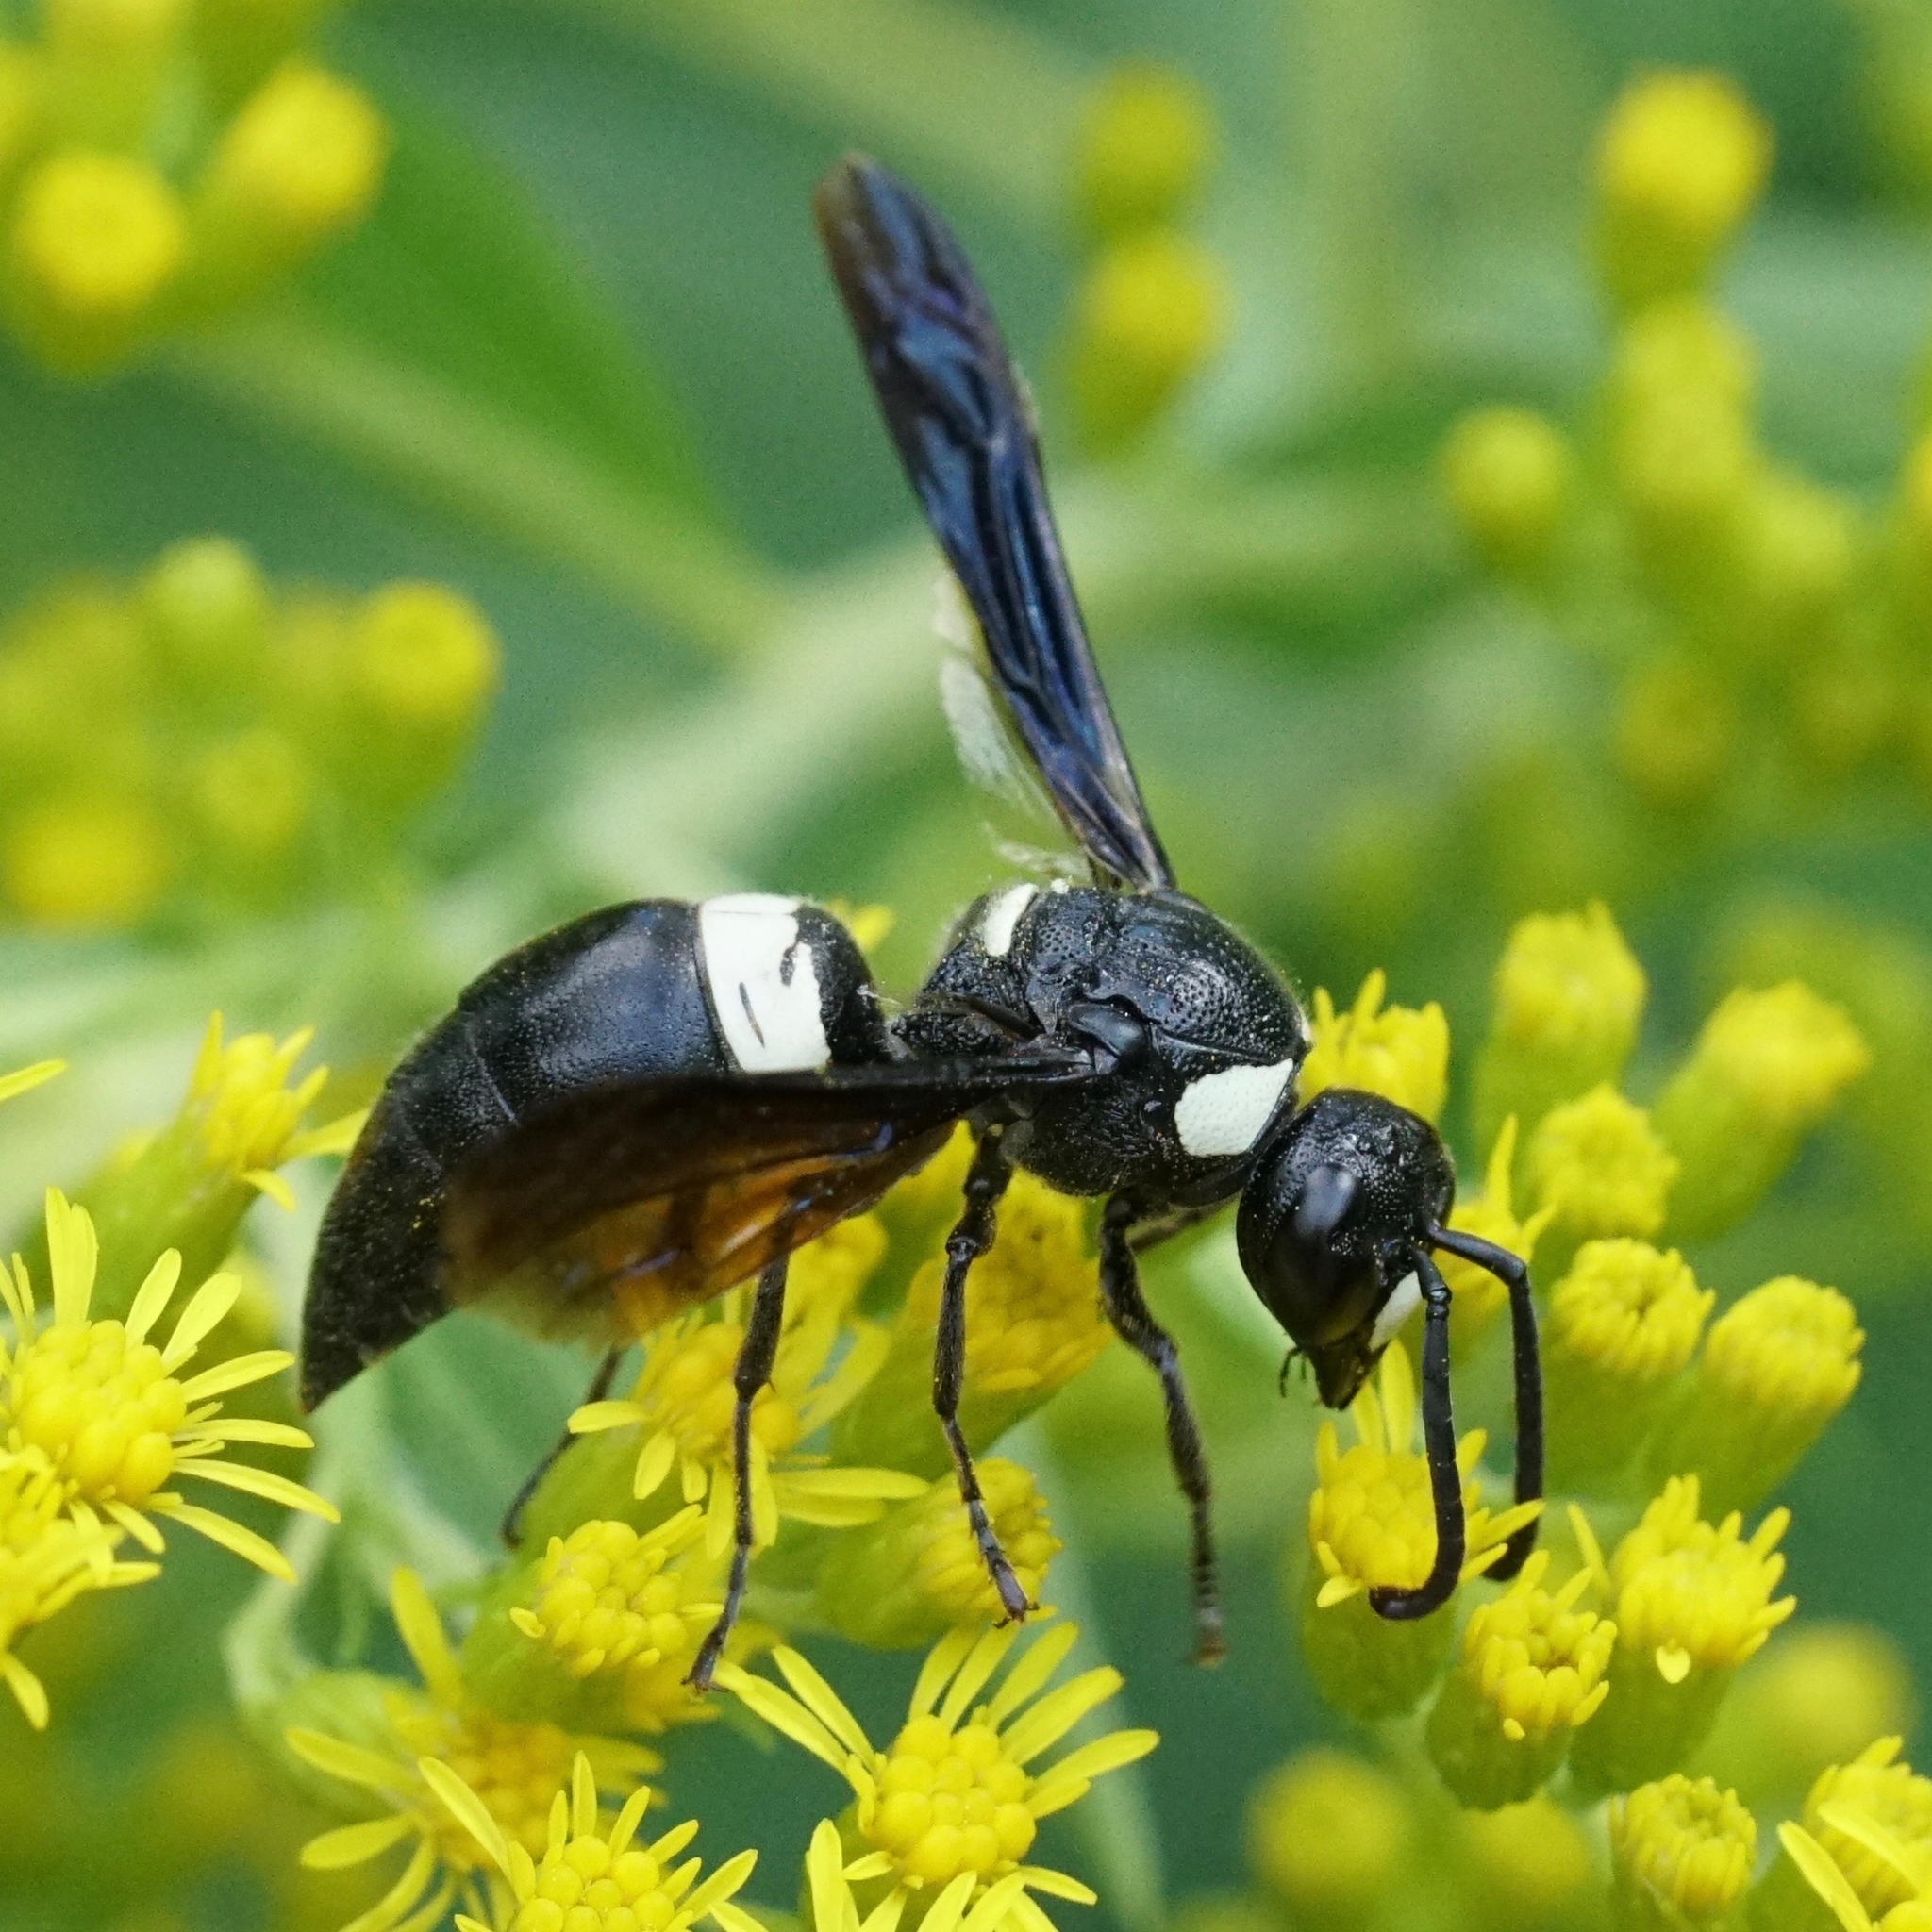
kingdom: Animalia
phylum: Arthropoda
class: Insecta
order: Hymenoptera
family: Eumenidae
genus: Monobia
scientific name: Monobia quadridens
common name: Four-toothed mason wasp
